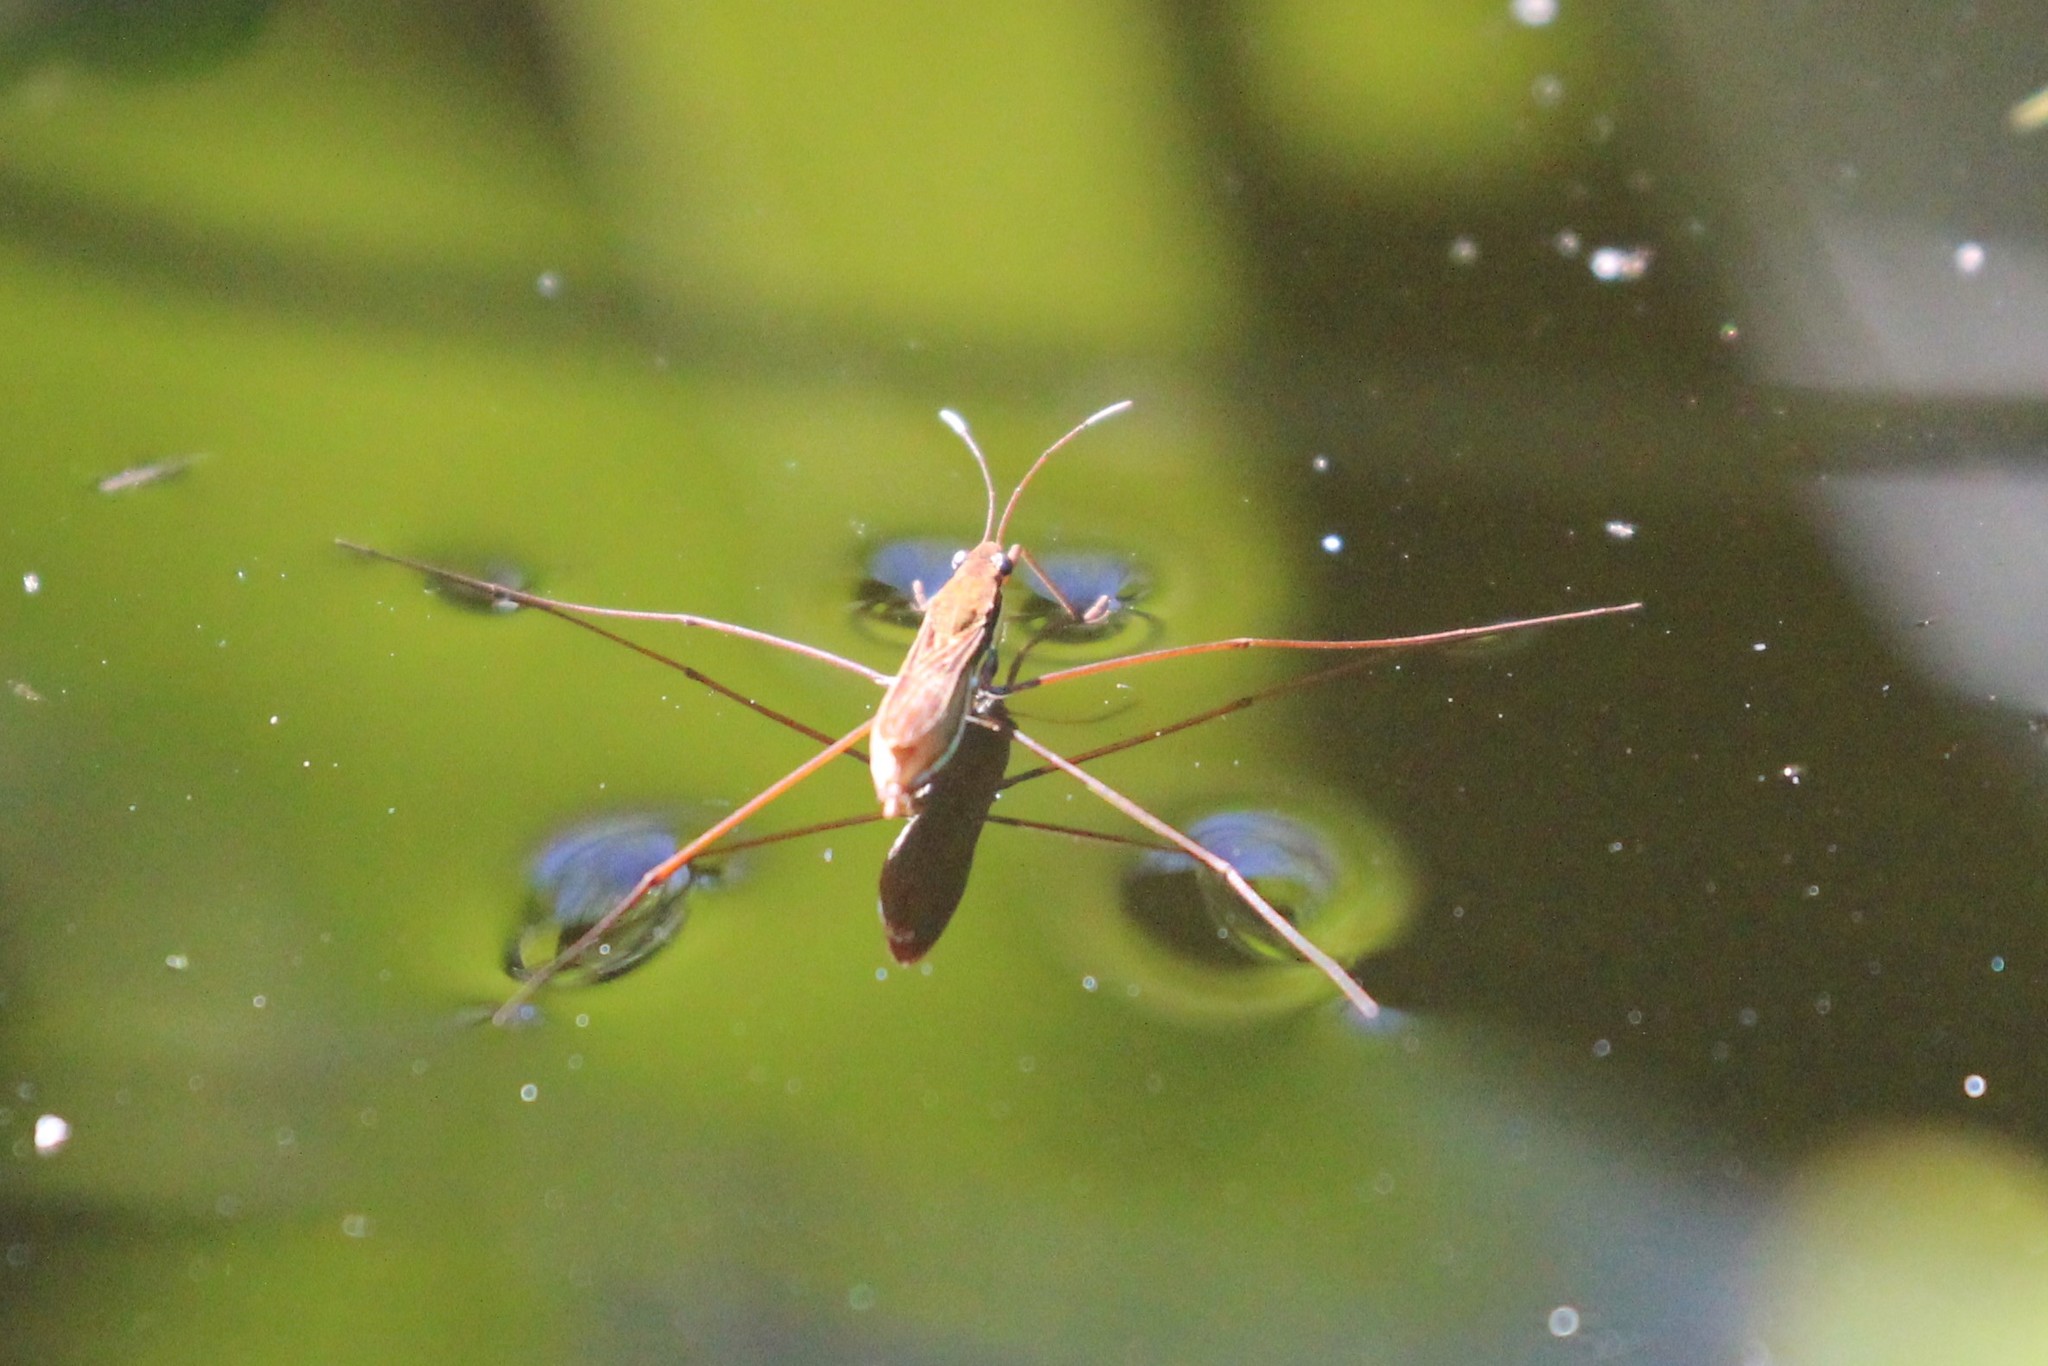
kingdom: Animalia
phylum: Arthropoda
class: Insecta
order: Hemiptera
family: Gerridae
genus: Limnoporus
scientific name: Limnoporus dissortis
